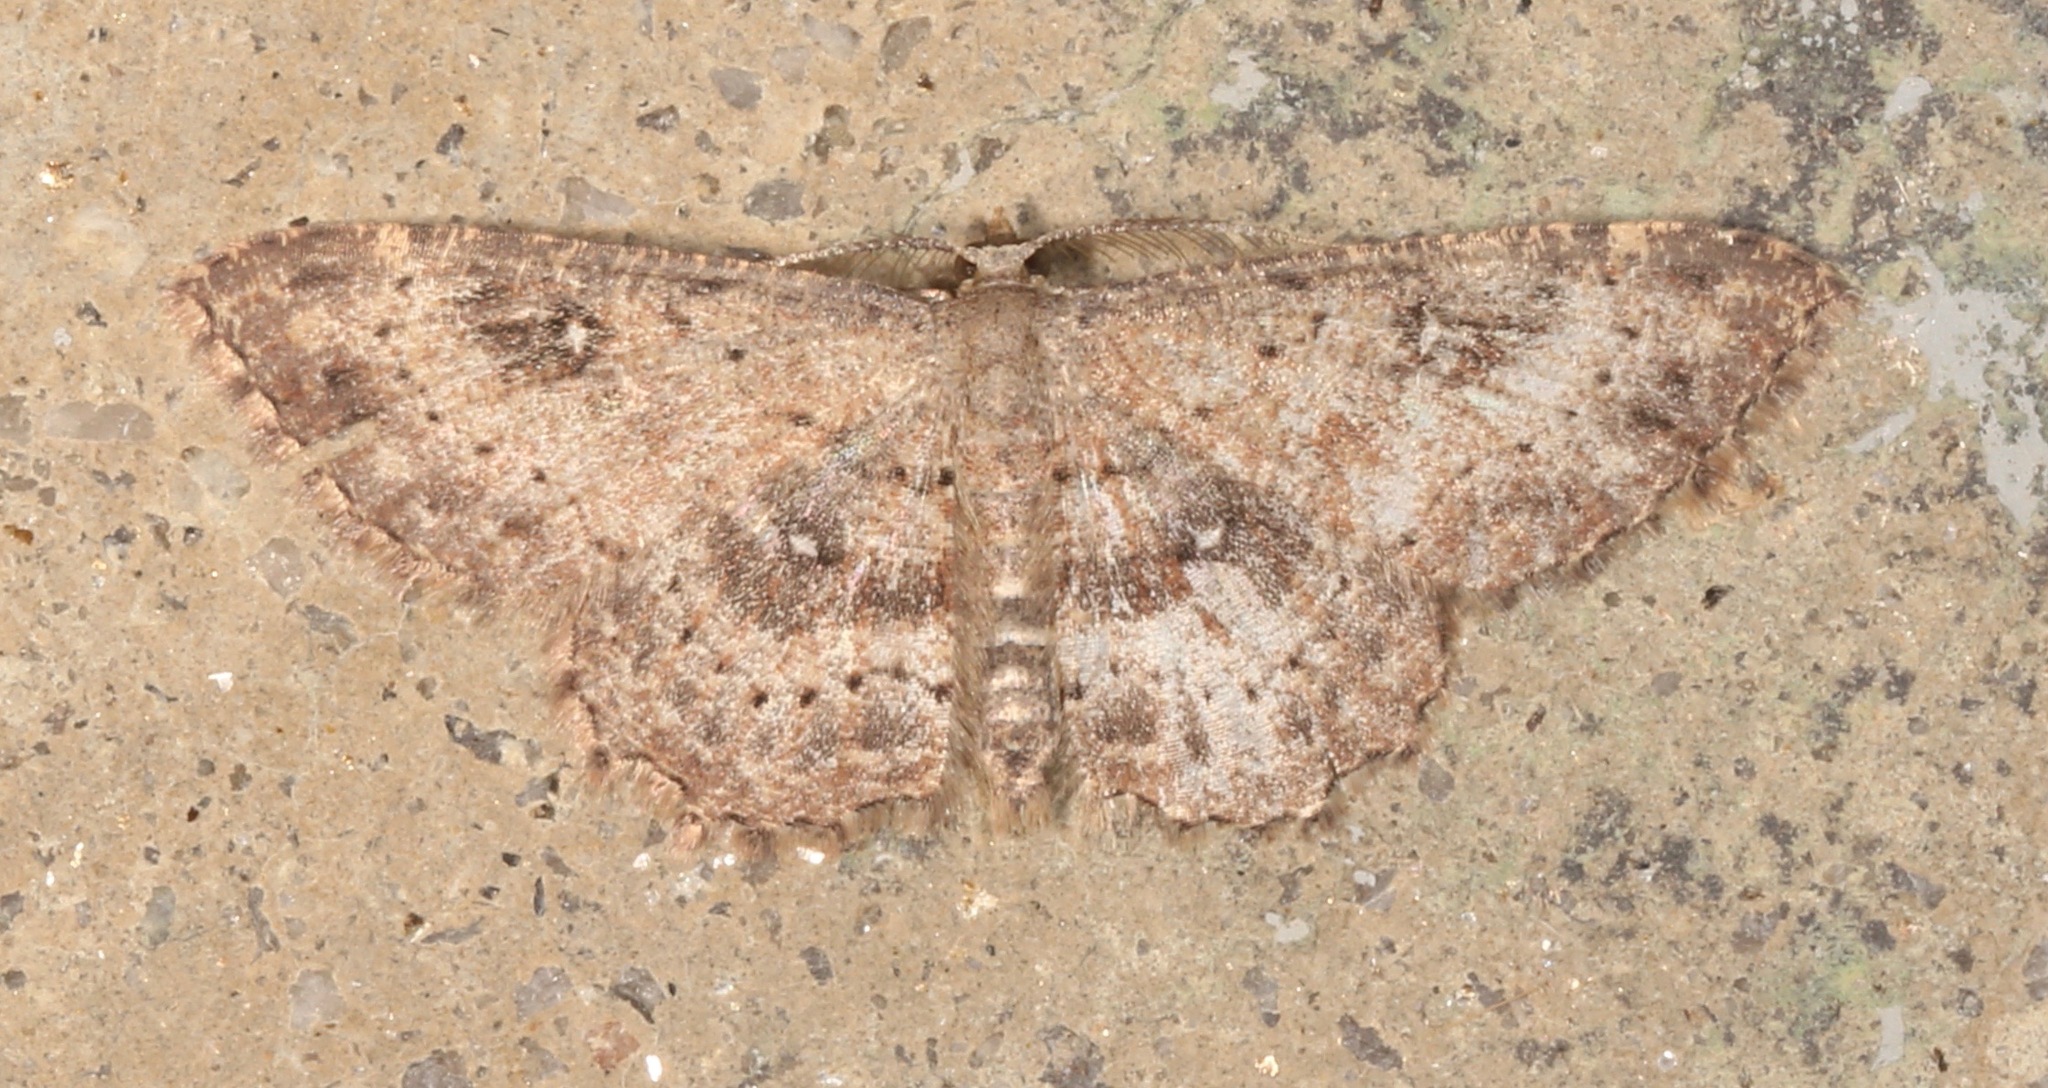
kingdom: Animalia
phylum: Arthropoda
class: Insecta
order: Lepidoptera
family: Geometridae
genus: Cyclophora
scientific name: Cyclophora nanaria
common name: Cankerworm
